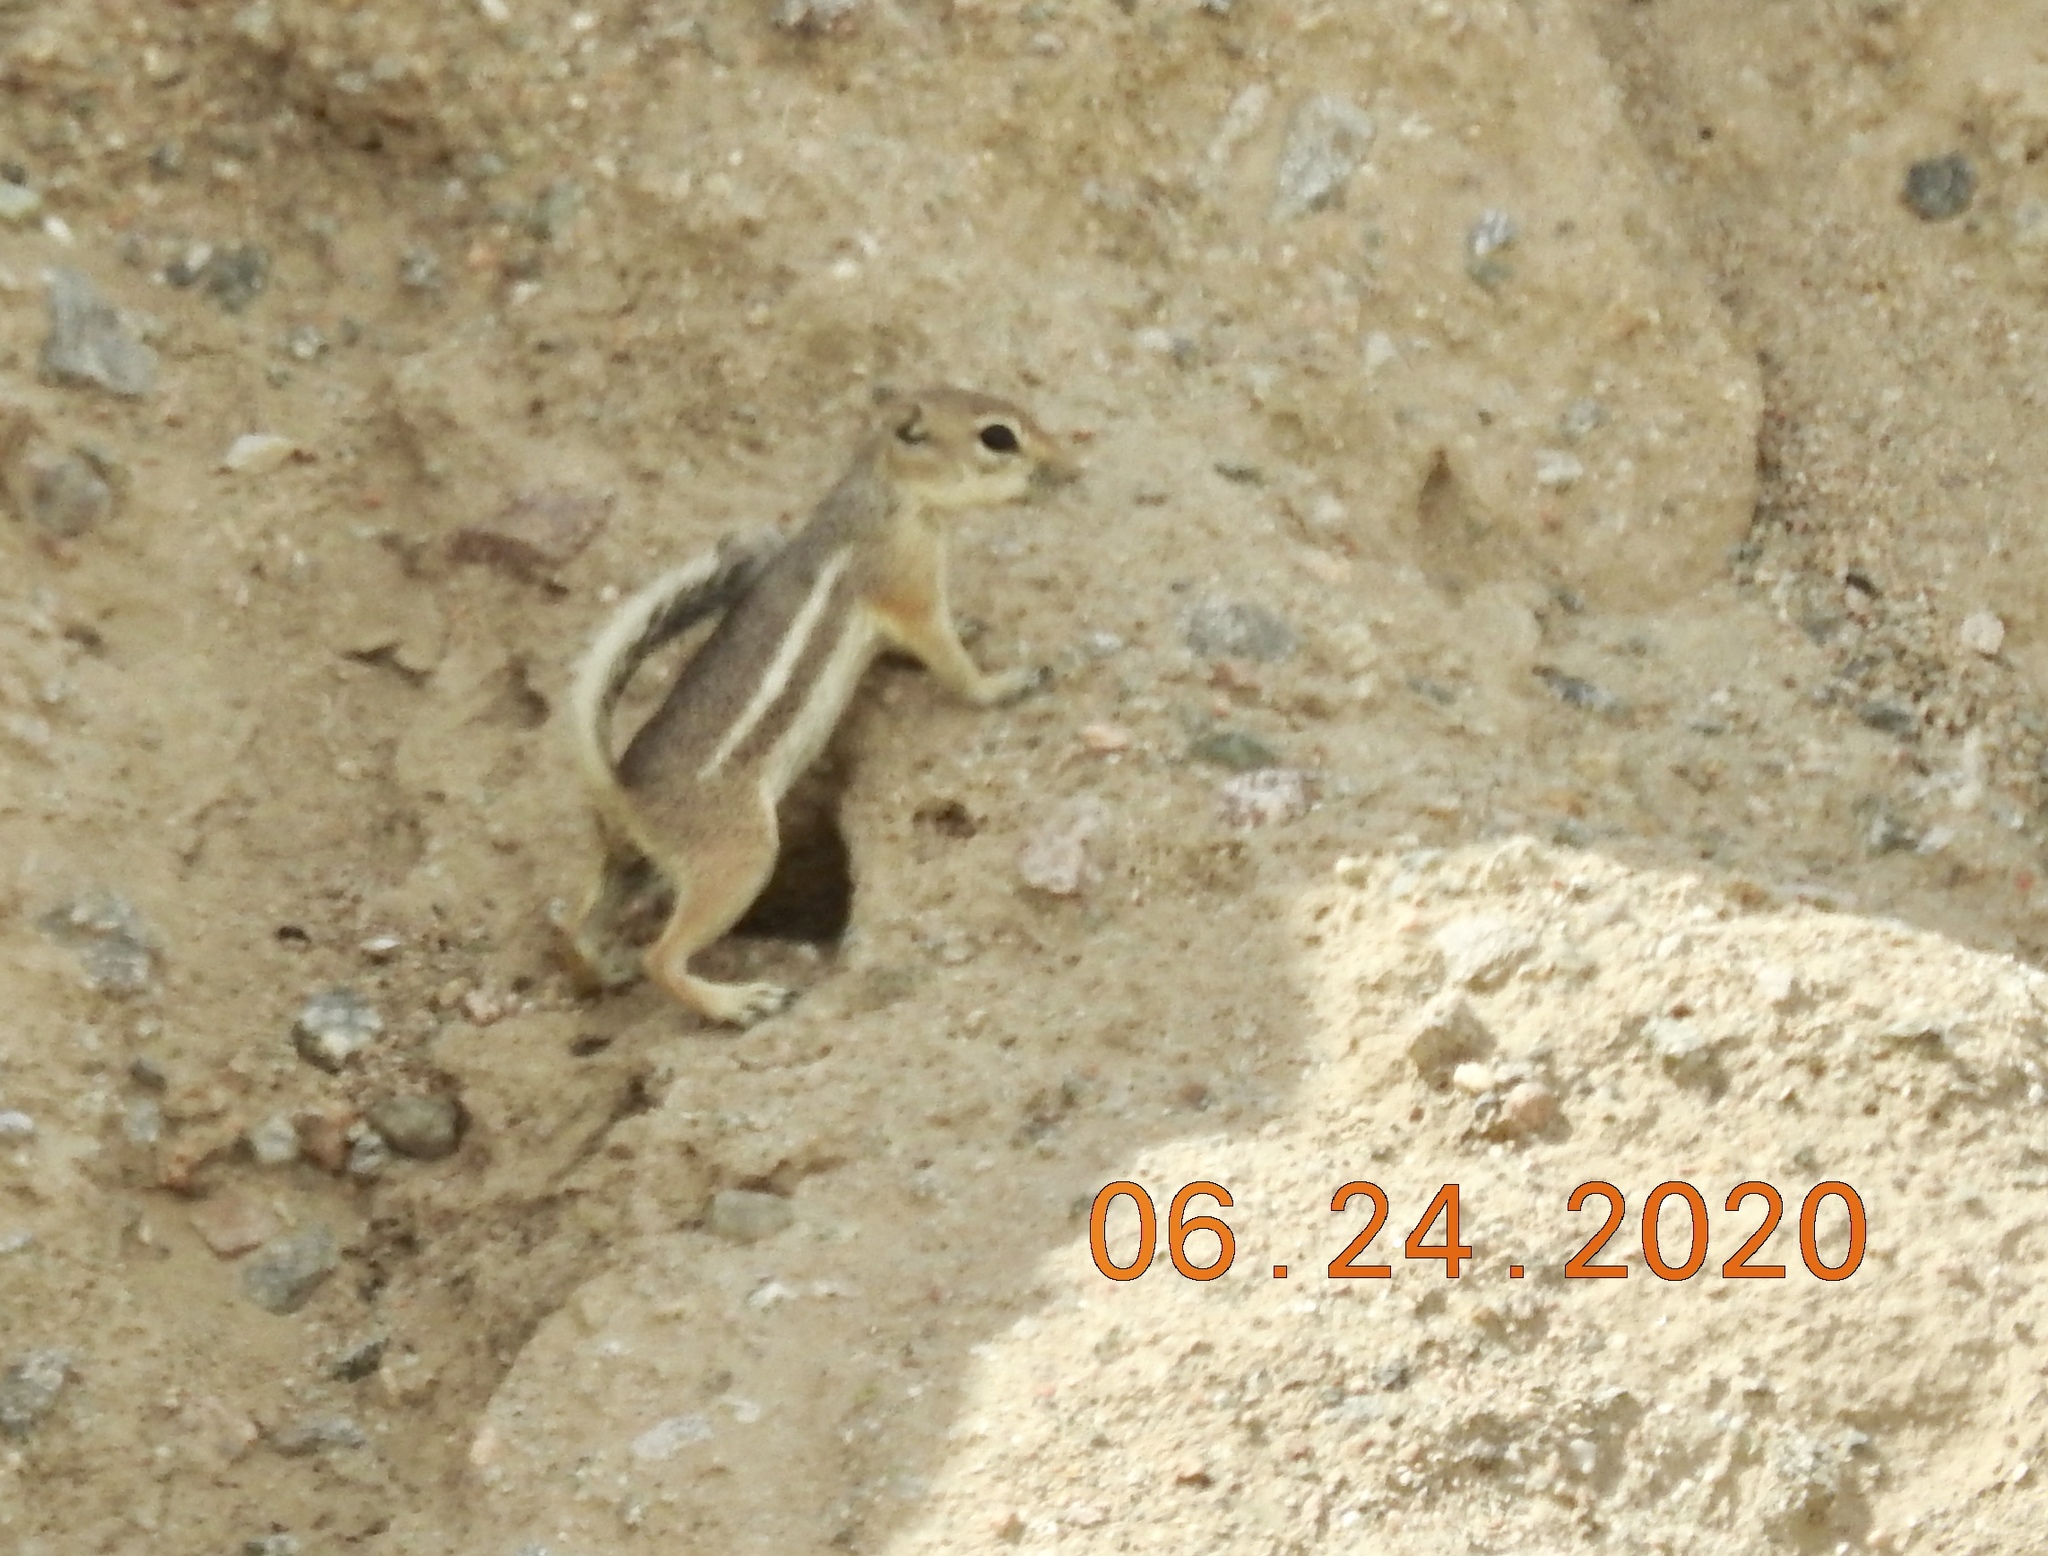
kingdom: Animalia
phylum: Chordata
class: Mammalia
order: Rodentia
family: Sciuridae
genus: Ammospermophilus
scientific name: Ammospermophilus leucurus
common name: White-tailed antelope squirrel
